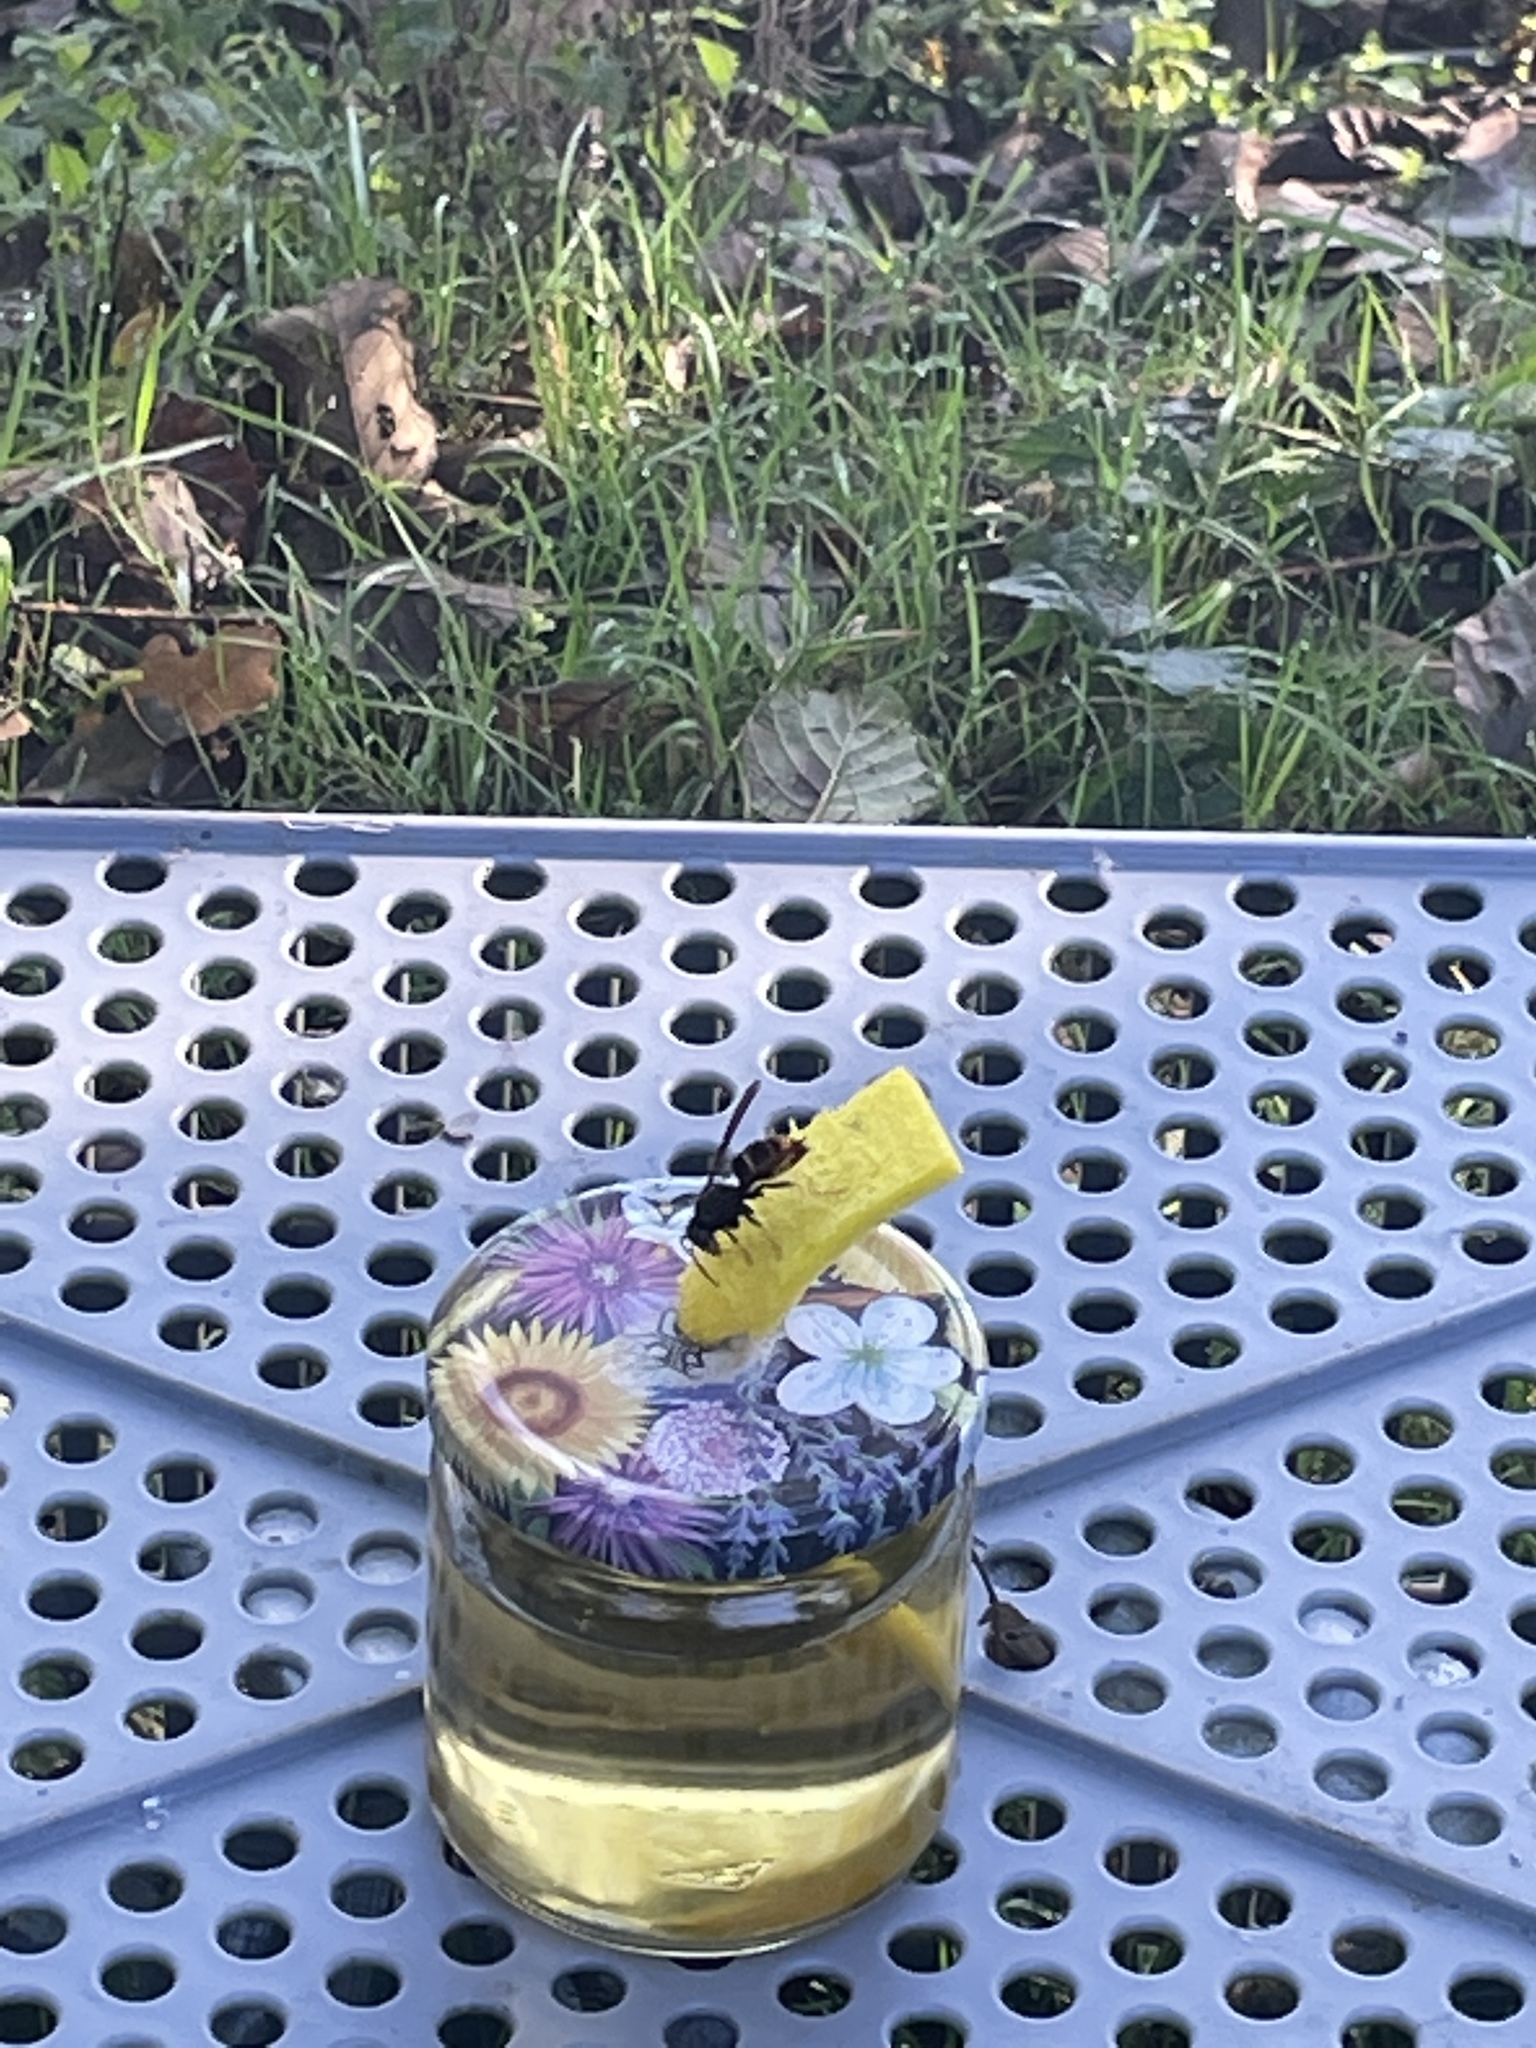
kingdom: Animalia
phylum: Arthropoda
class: Insecta
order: Hymenoptera
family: Vespidae
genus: Vespa
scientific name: Vespa velutina
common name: Asian hornet
